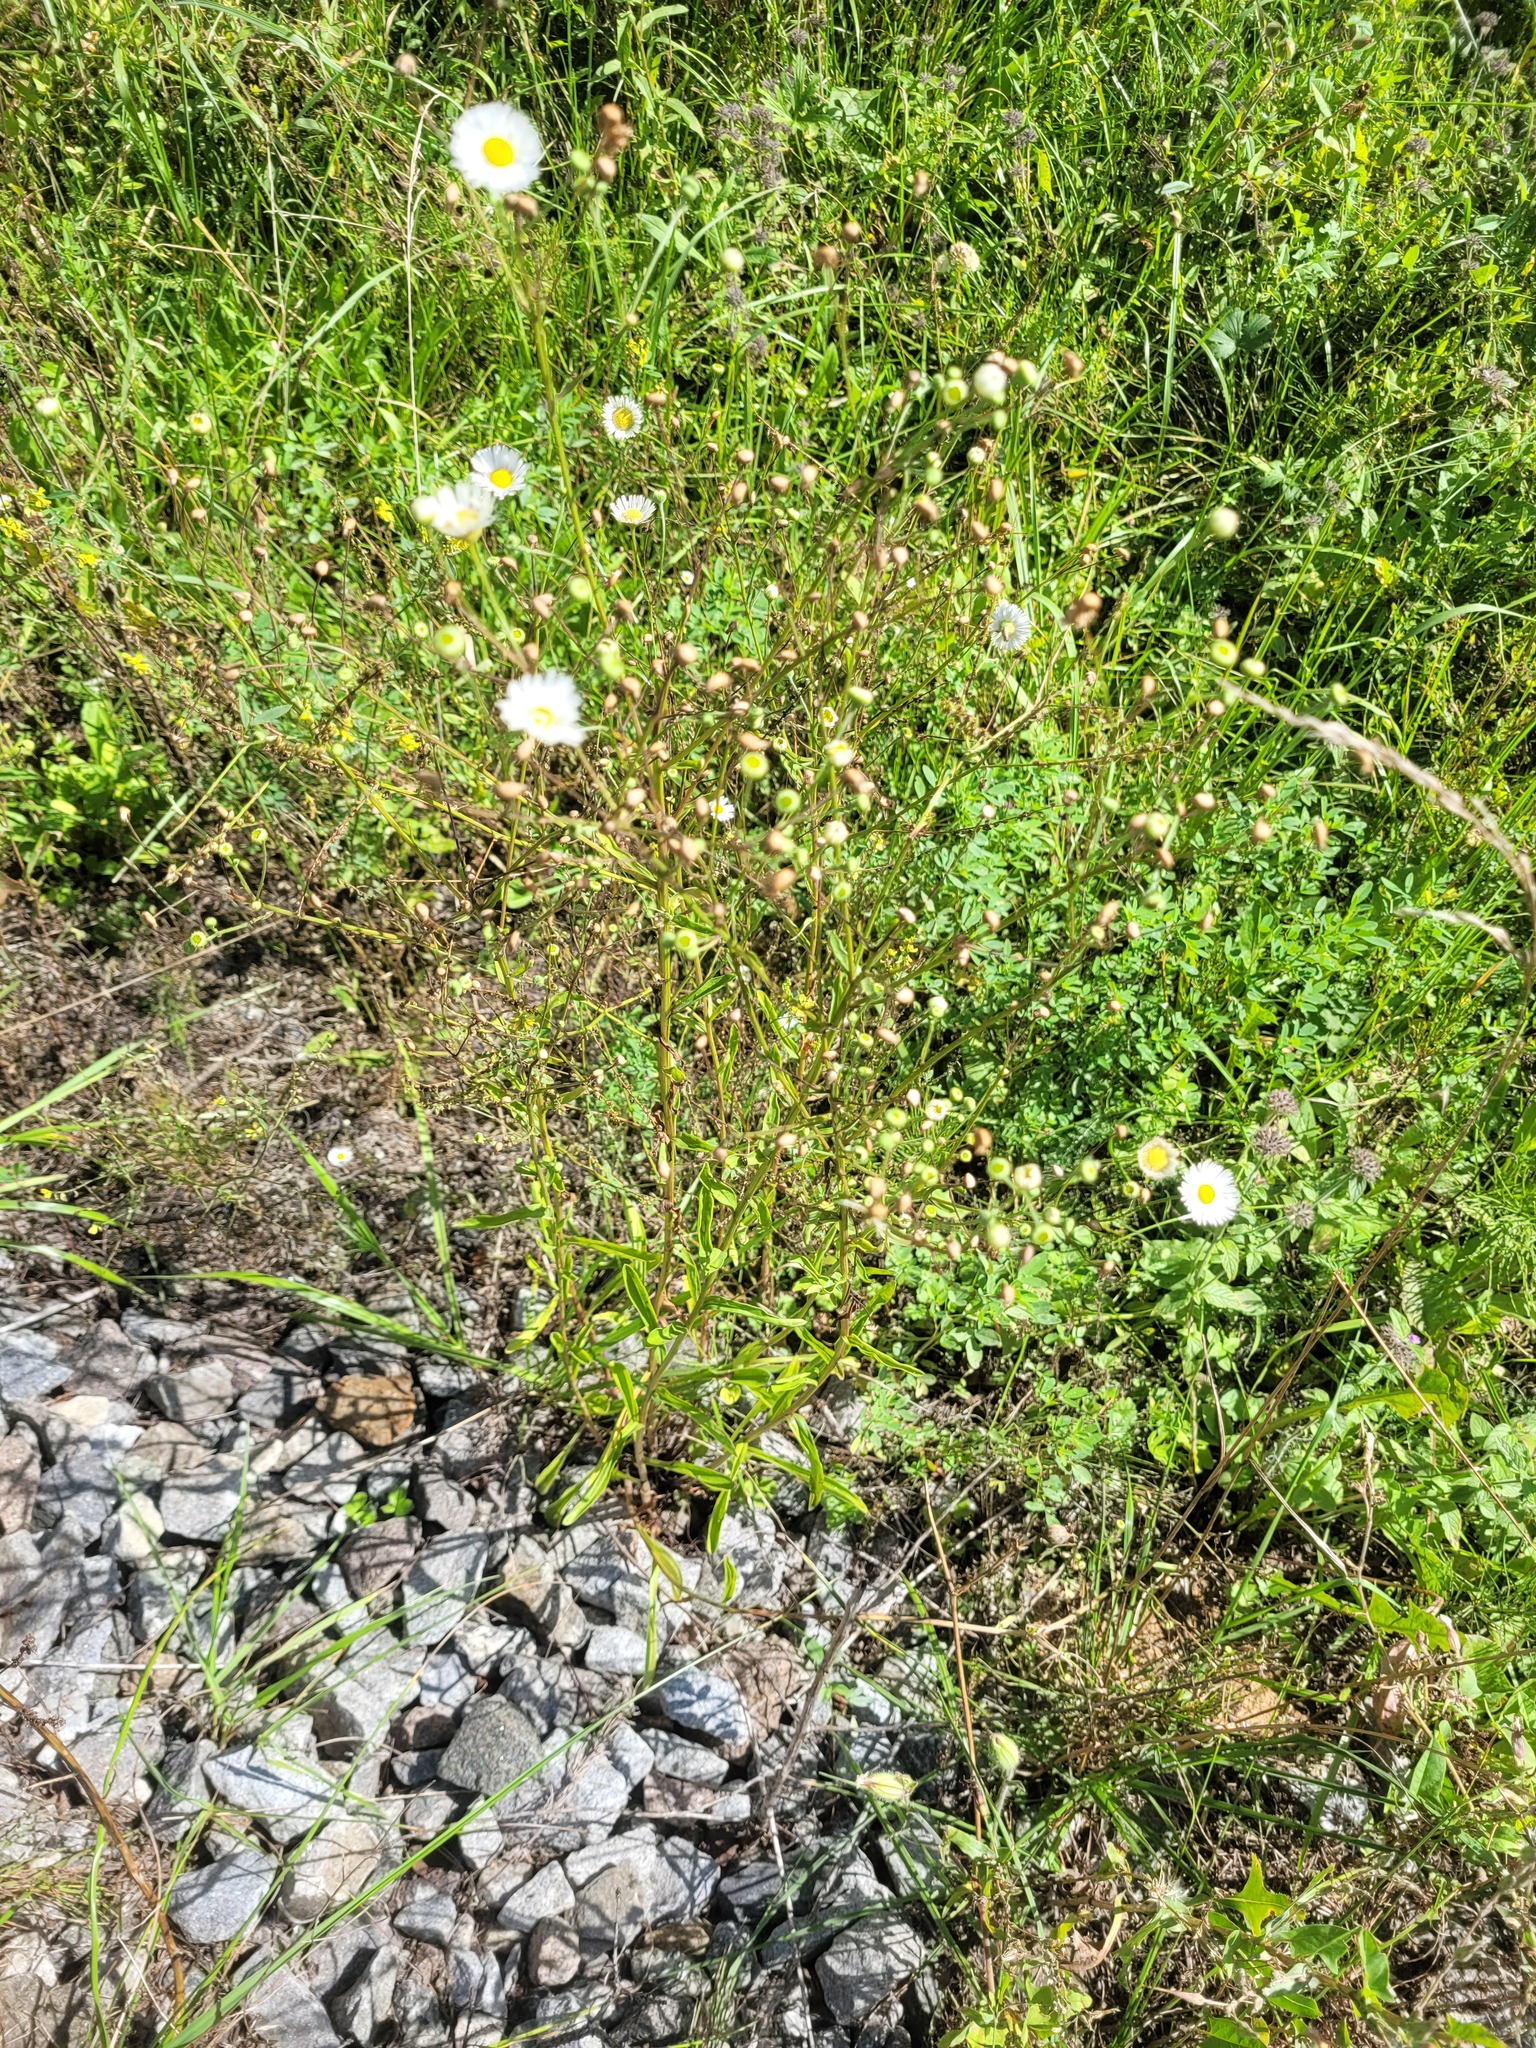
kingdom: Plantae
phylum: Tracheophyta
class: Magnoliopsida
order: Asterales
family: Asteraceae
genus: Erigeron
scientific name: Erigeron strigosus
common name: Common eastern fleabane
